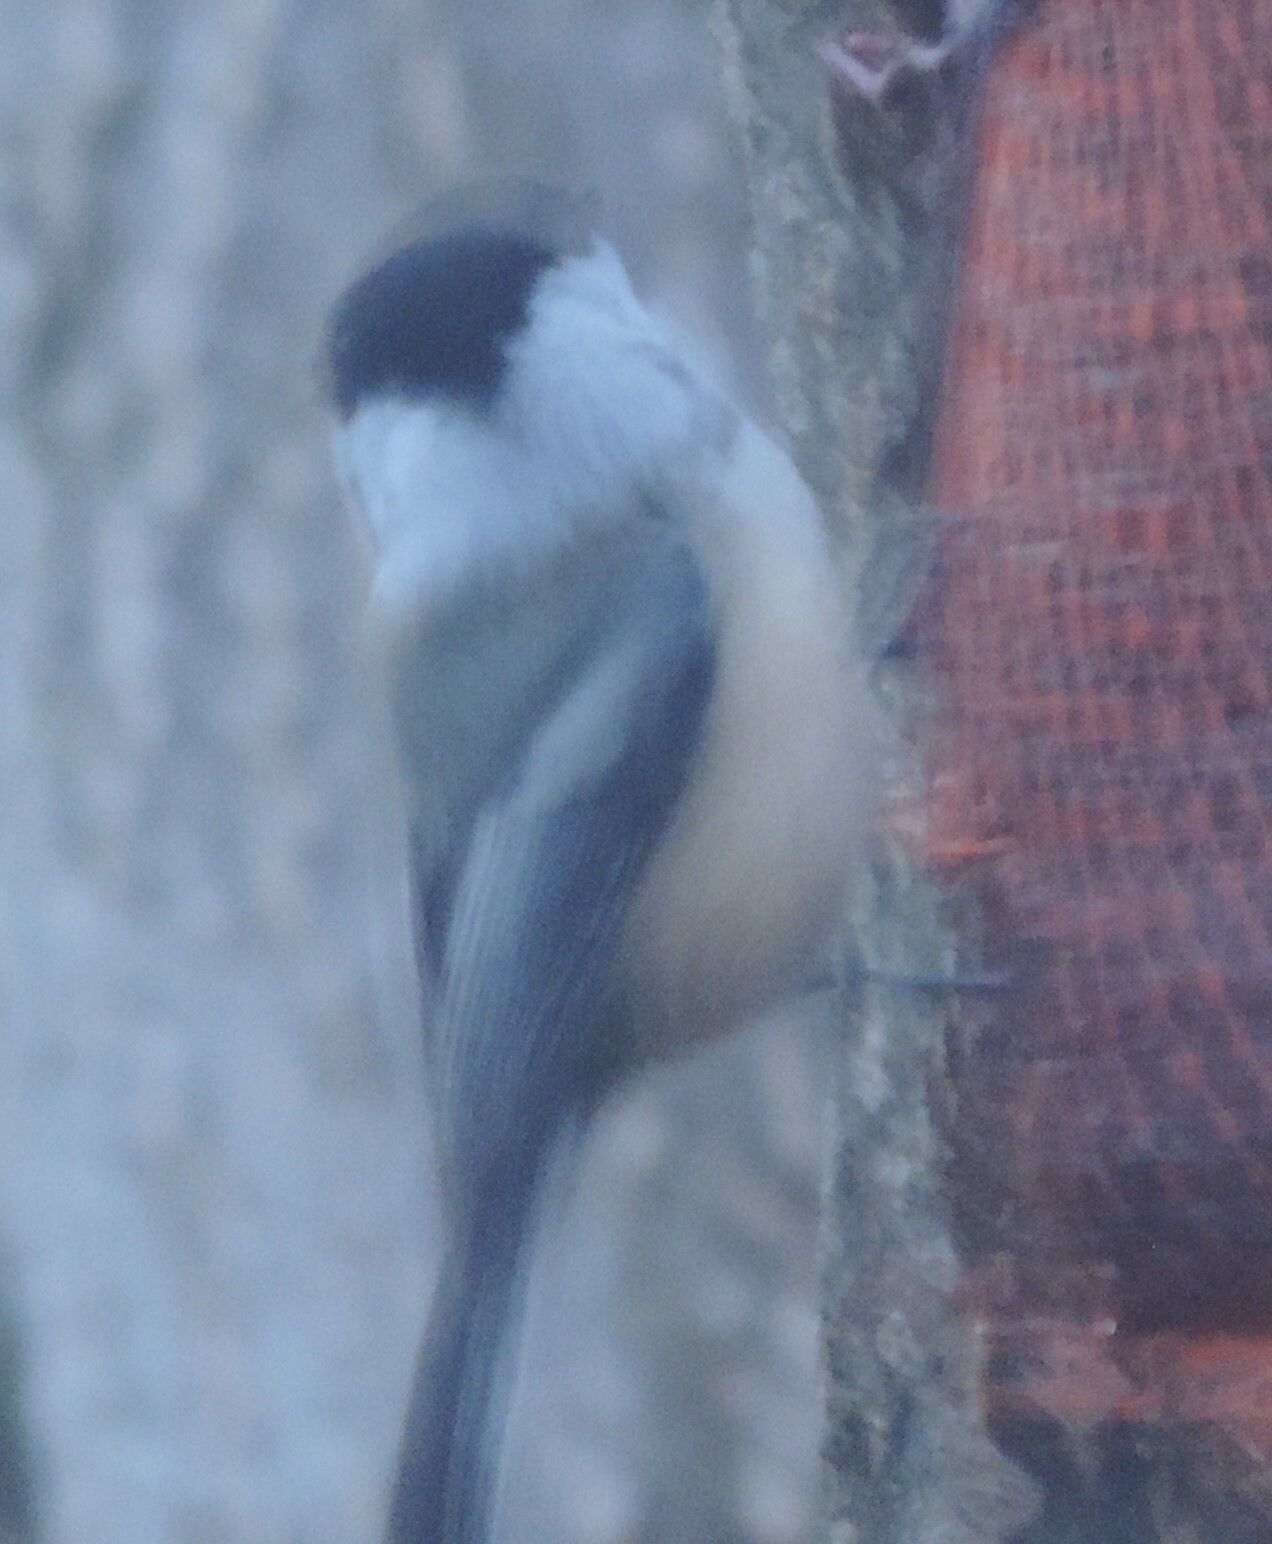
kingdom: Animalia
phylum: Chordata
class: Aves
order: Passeriformes
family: Paridae
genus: Poecile
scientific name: Poecile atricapillus
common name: Black-capped chickadee
